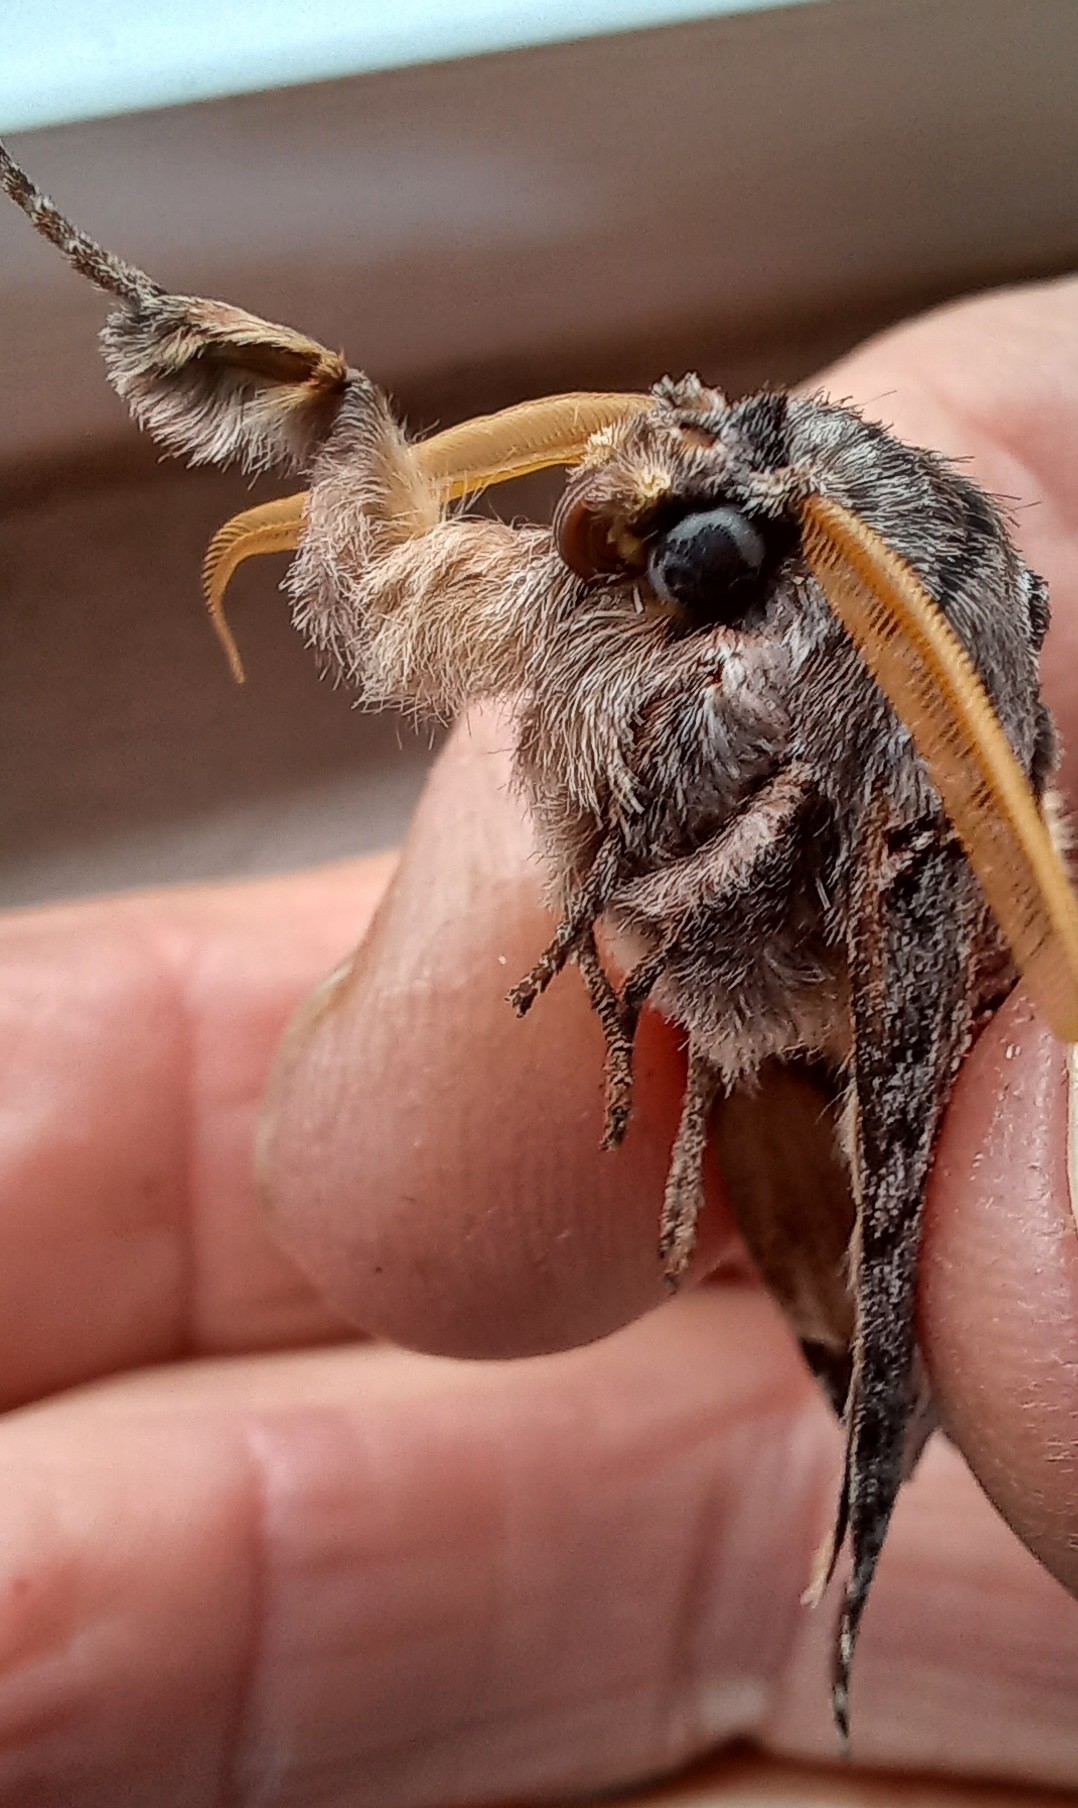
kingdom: Animalia
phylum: Arthropoda
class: Insecta
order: Lepidoptera
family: Notodontidae
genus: Catochria
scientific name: Catochria catocaloides
